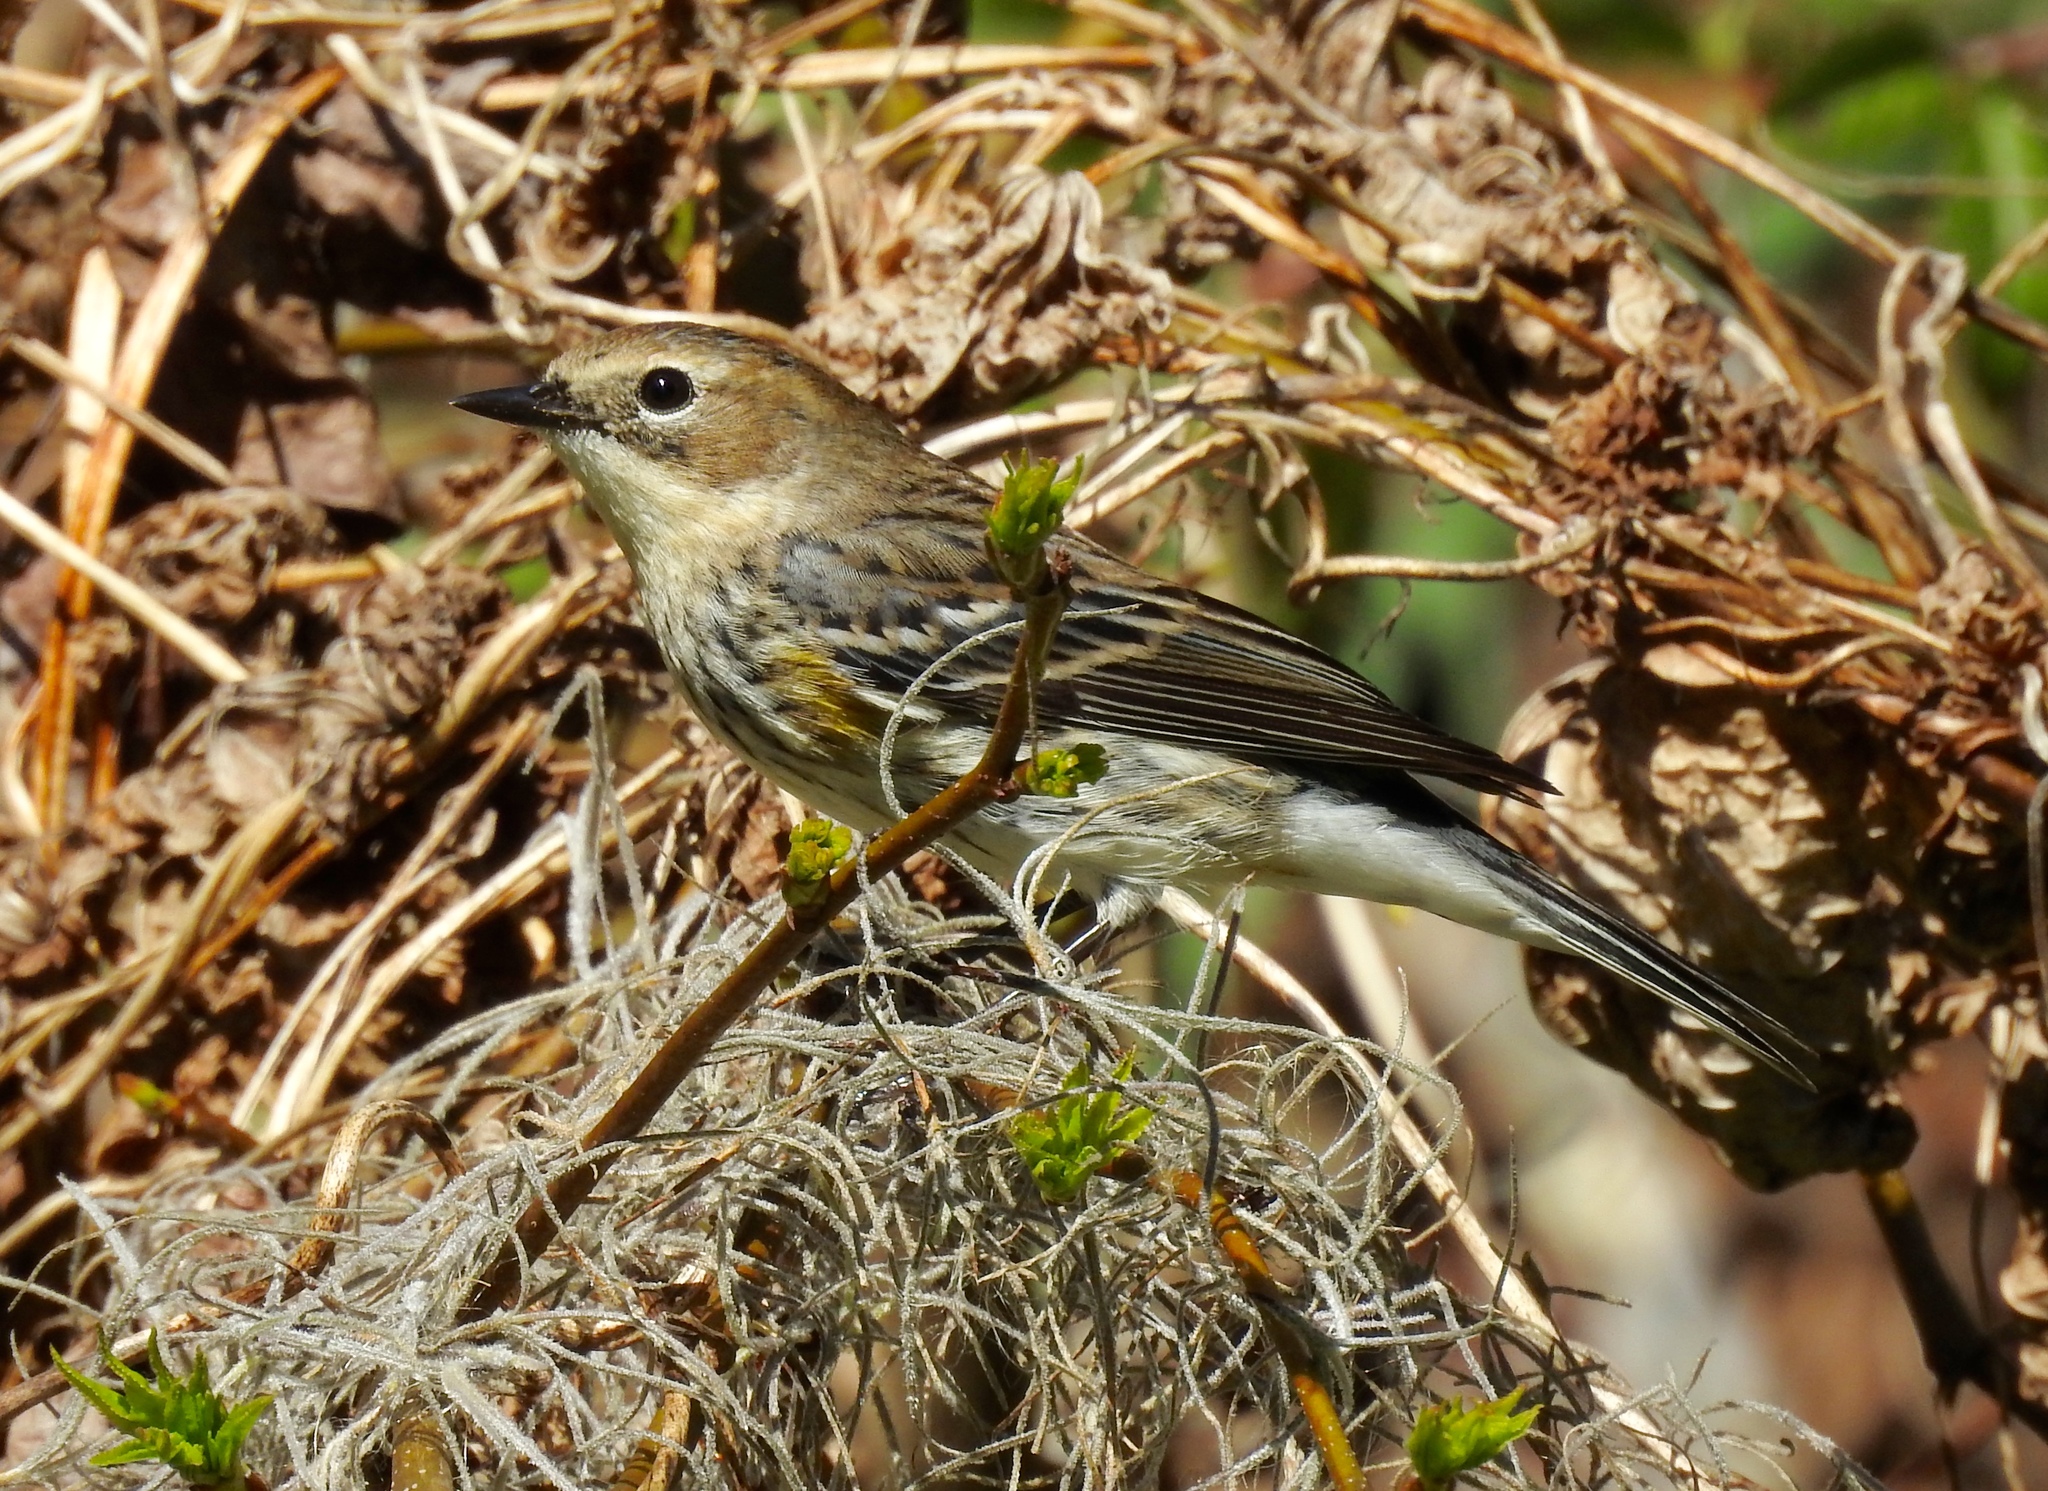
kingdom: Animalia
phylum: Chordata
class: Aves
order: Passeriformes
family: Parulidae
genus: Setophaga
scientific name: Setophaga coronata
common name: Myrtle warbler
